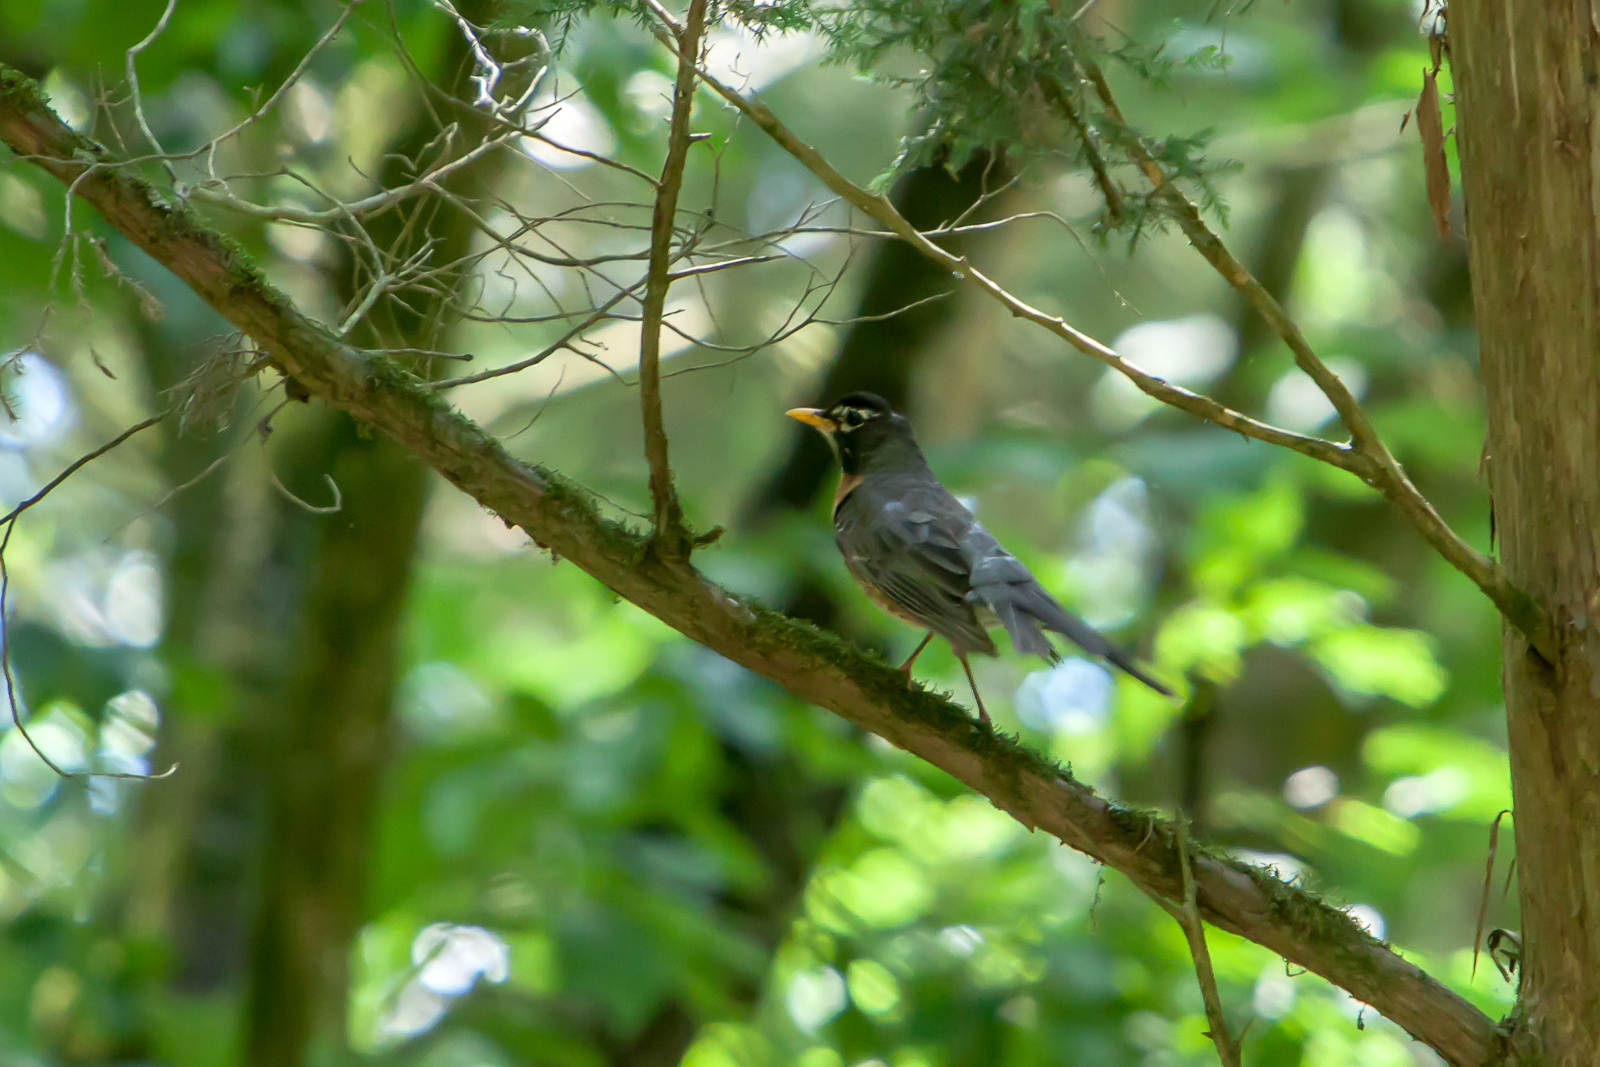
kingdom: Animalia
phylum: Chordata
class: Aves
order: Passeriformes
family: Turdidae
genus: Turdus
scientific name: Turdus migratorius
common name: American robin
